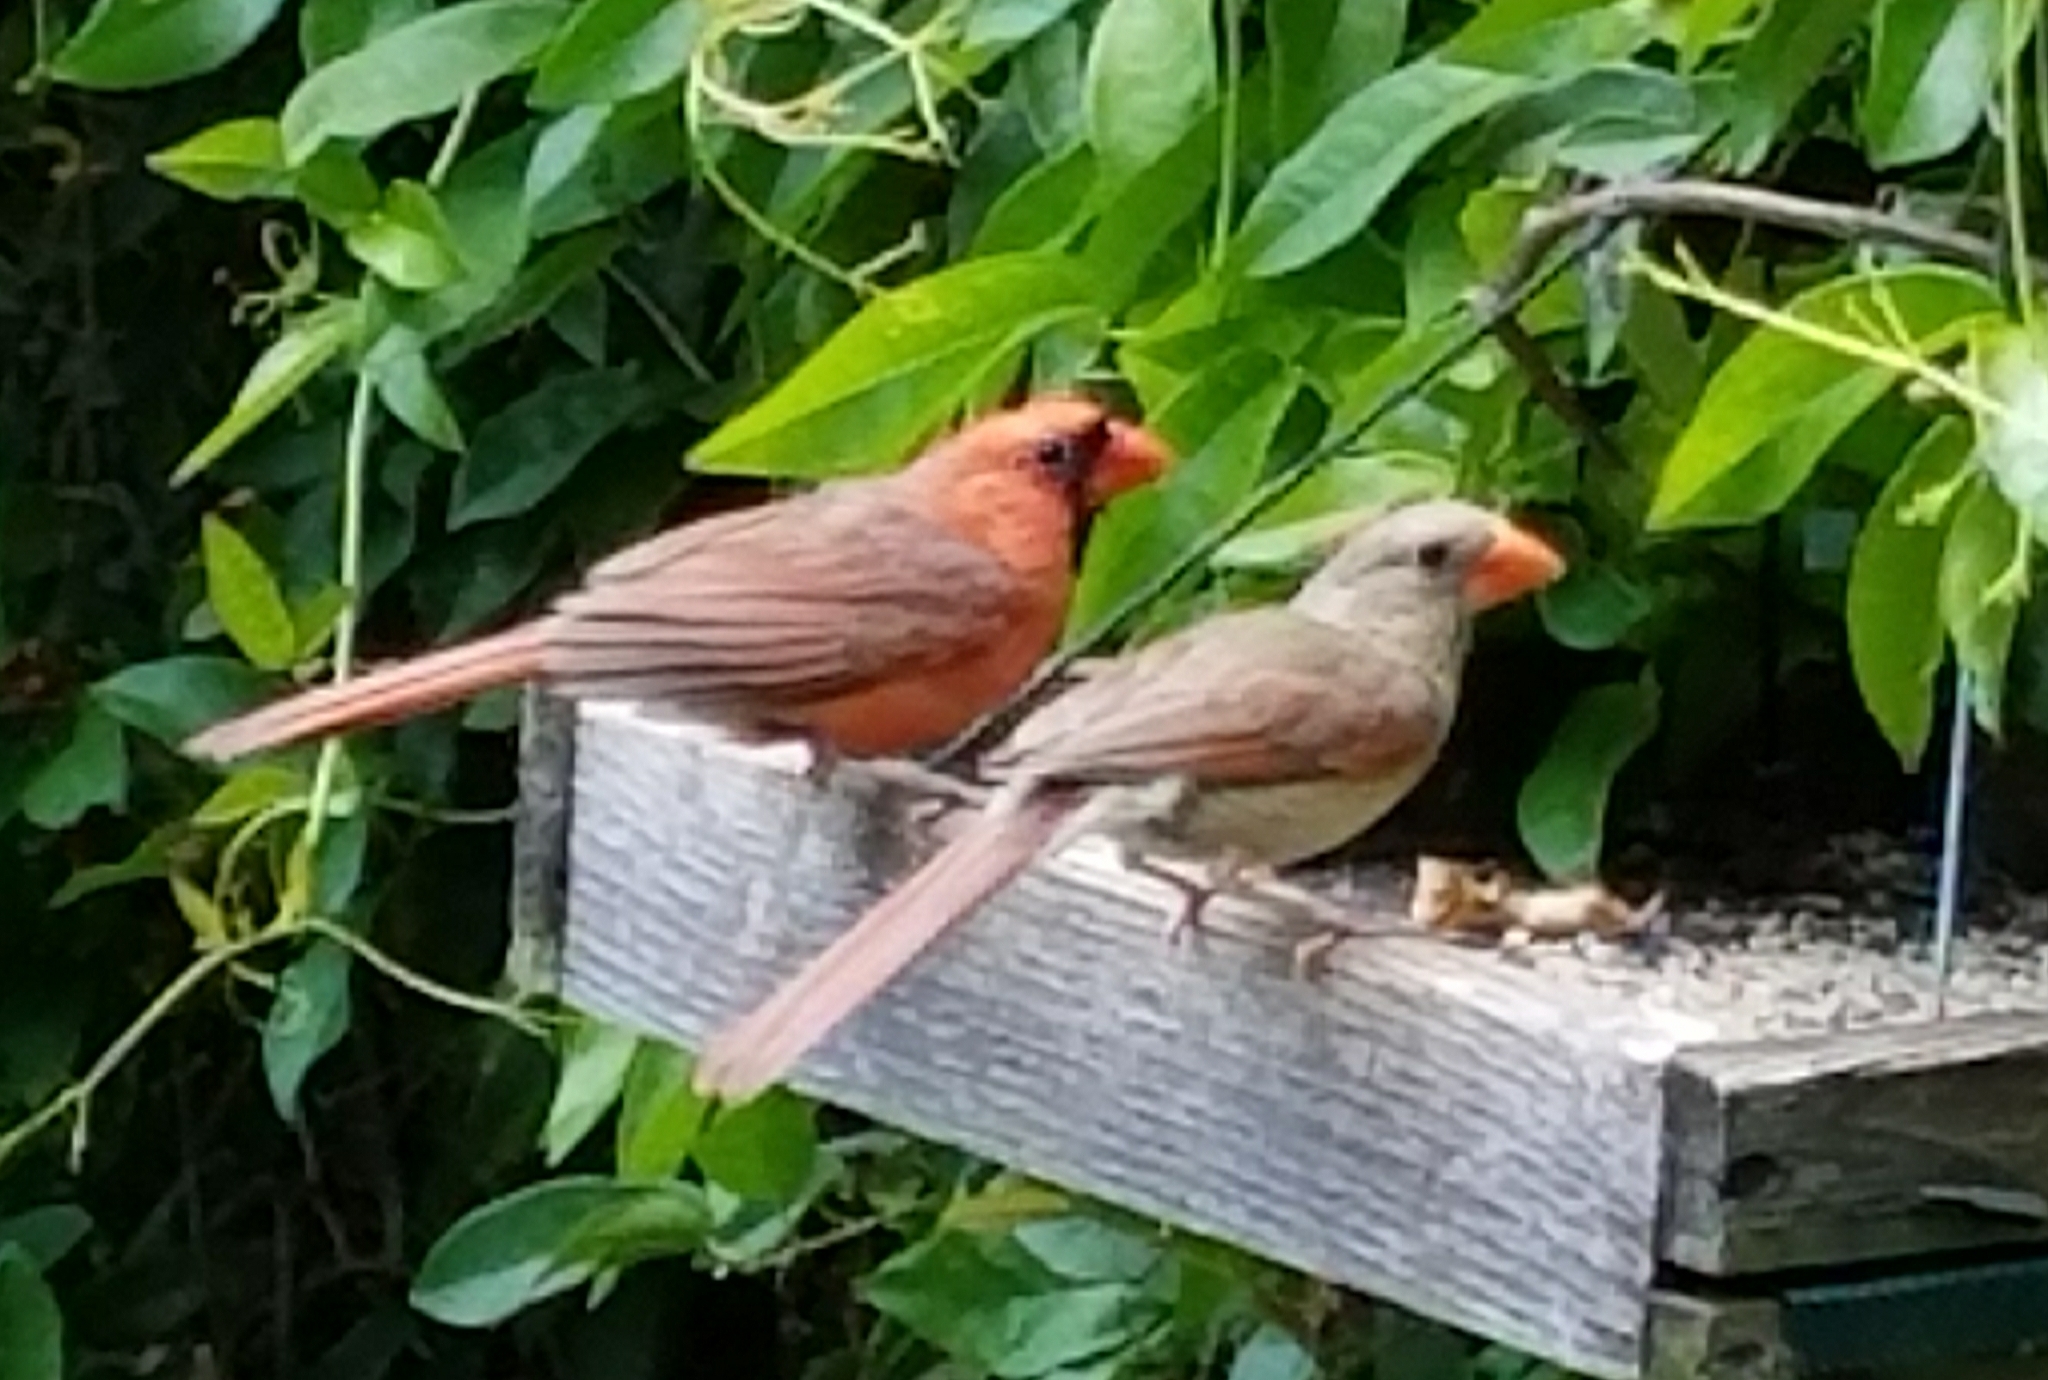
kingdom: Animalia
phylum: Chordata
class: Aves
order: Passeriformes
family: Cardinalidae
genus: Cardinalis
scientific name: Cardinalis cardinalis
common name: Northern cardinal
